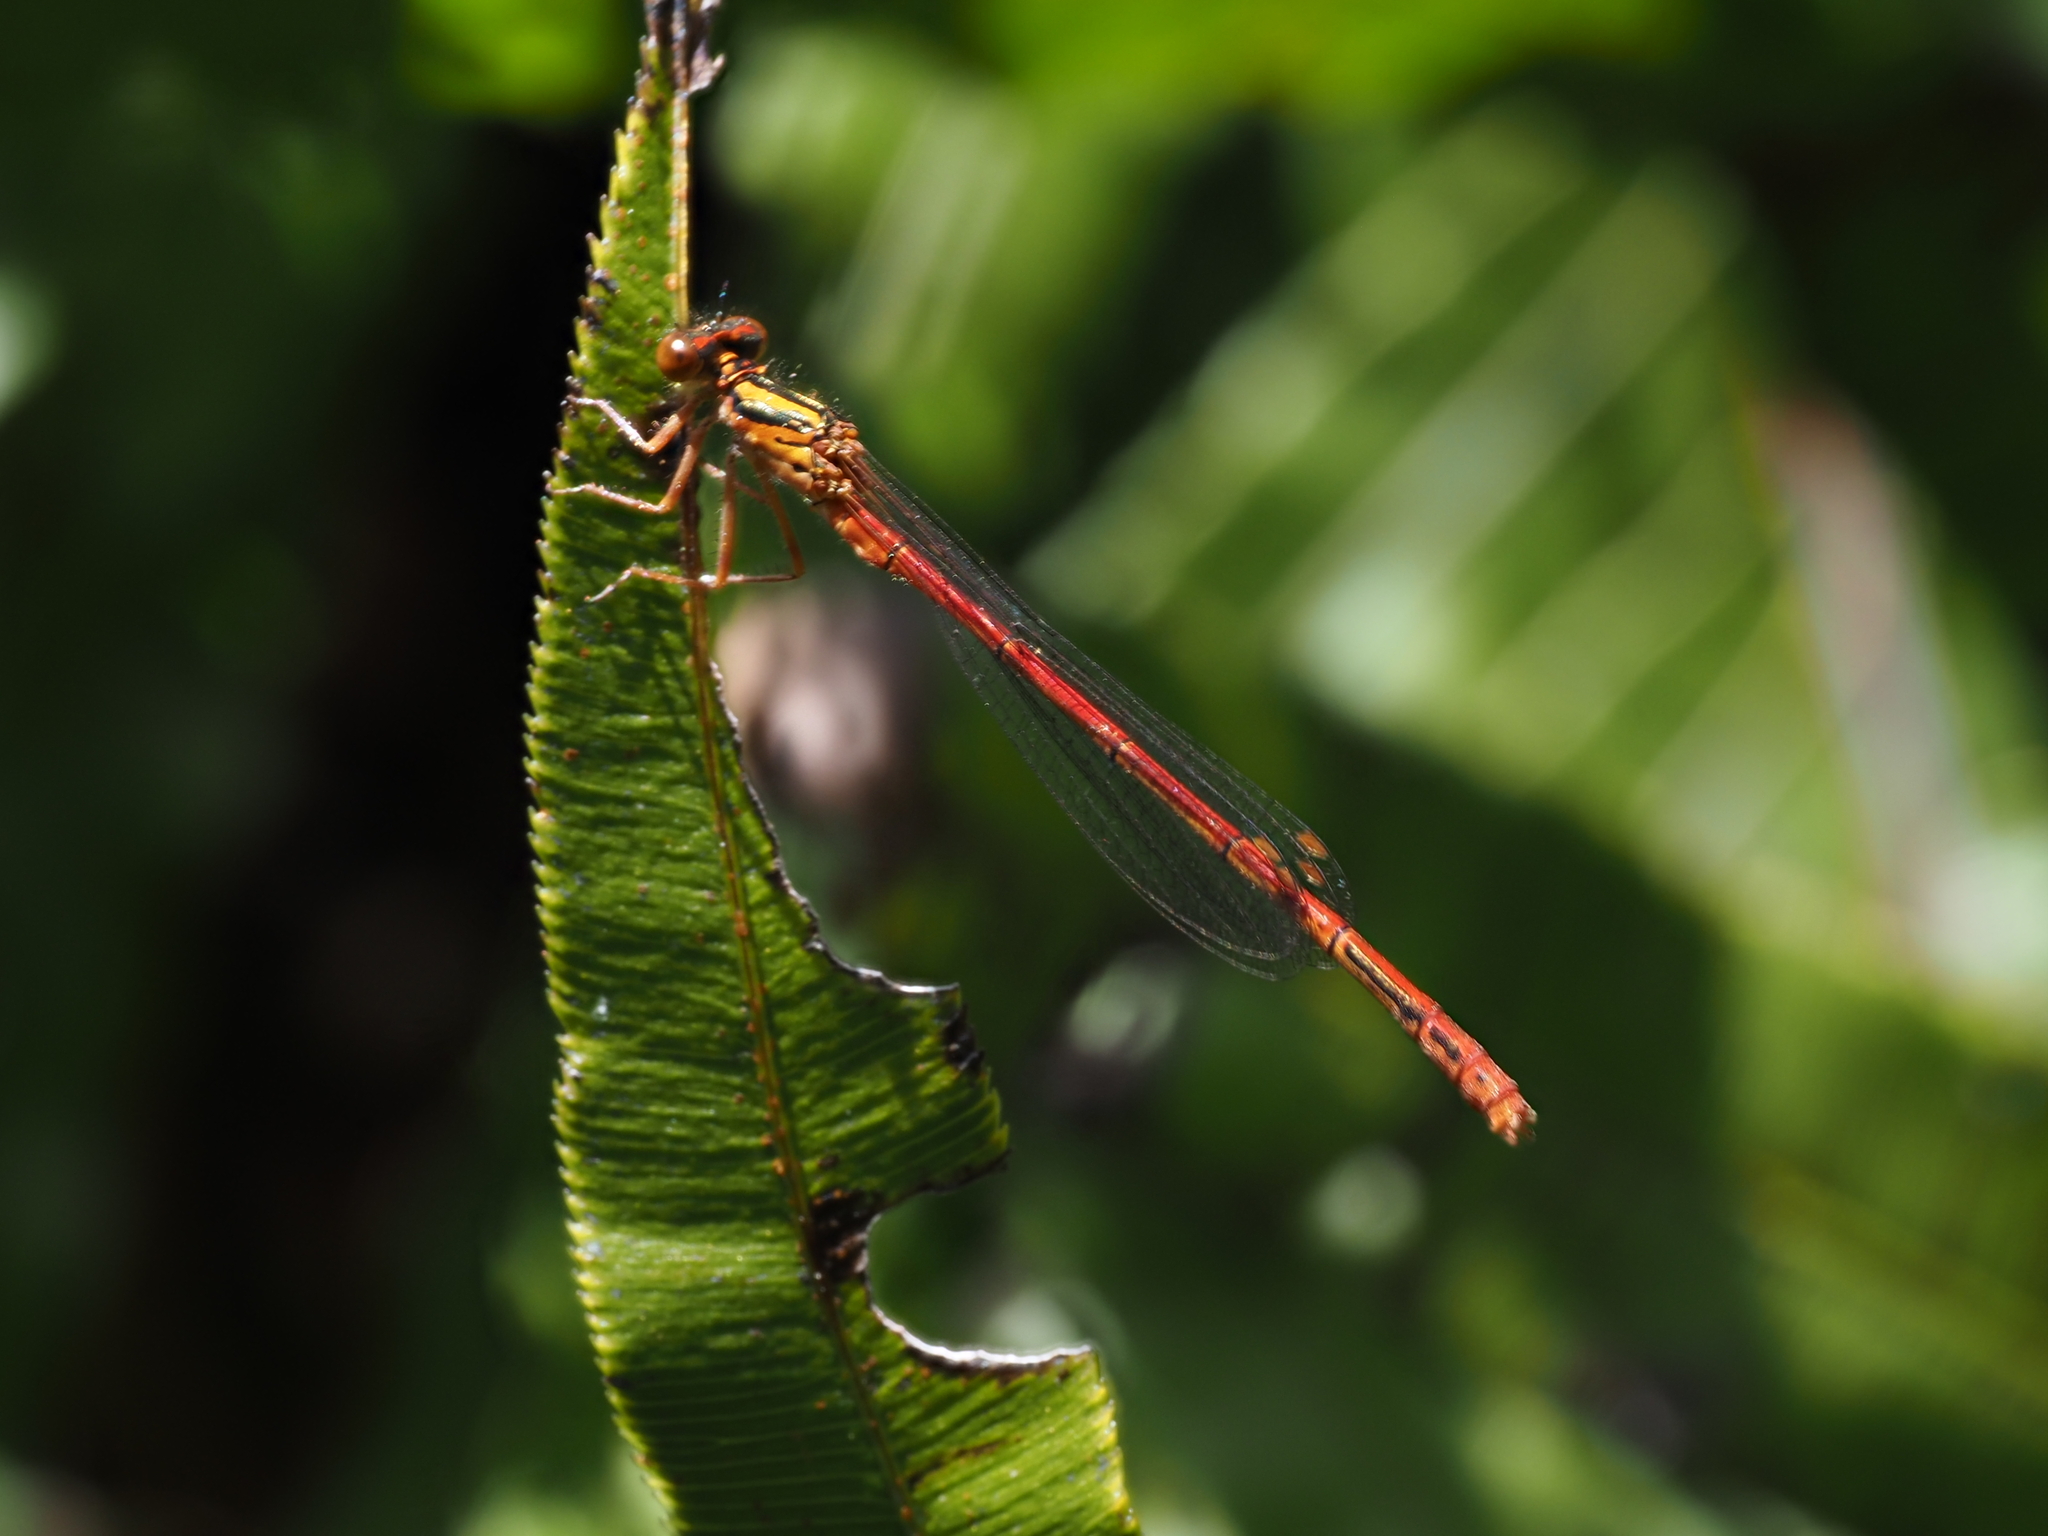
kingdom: Animalia
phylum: Arthropoda
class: Insecta
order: Odonata
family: Coenagrionidae
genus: Xanthocnemis
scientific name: Xanthocnemis zealandica
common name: Common redcoat damselfly
